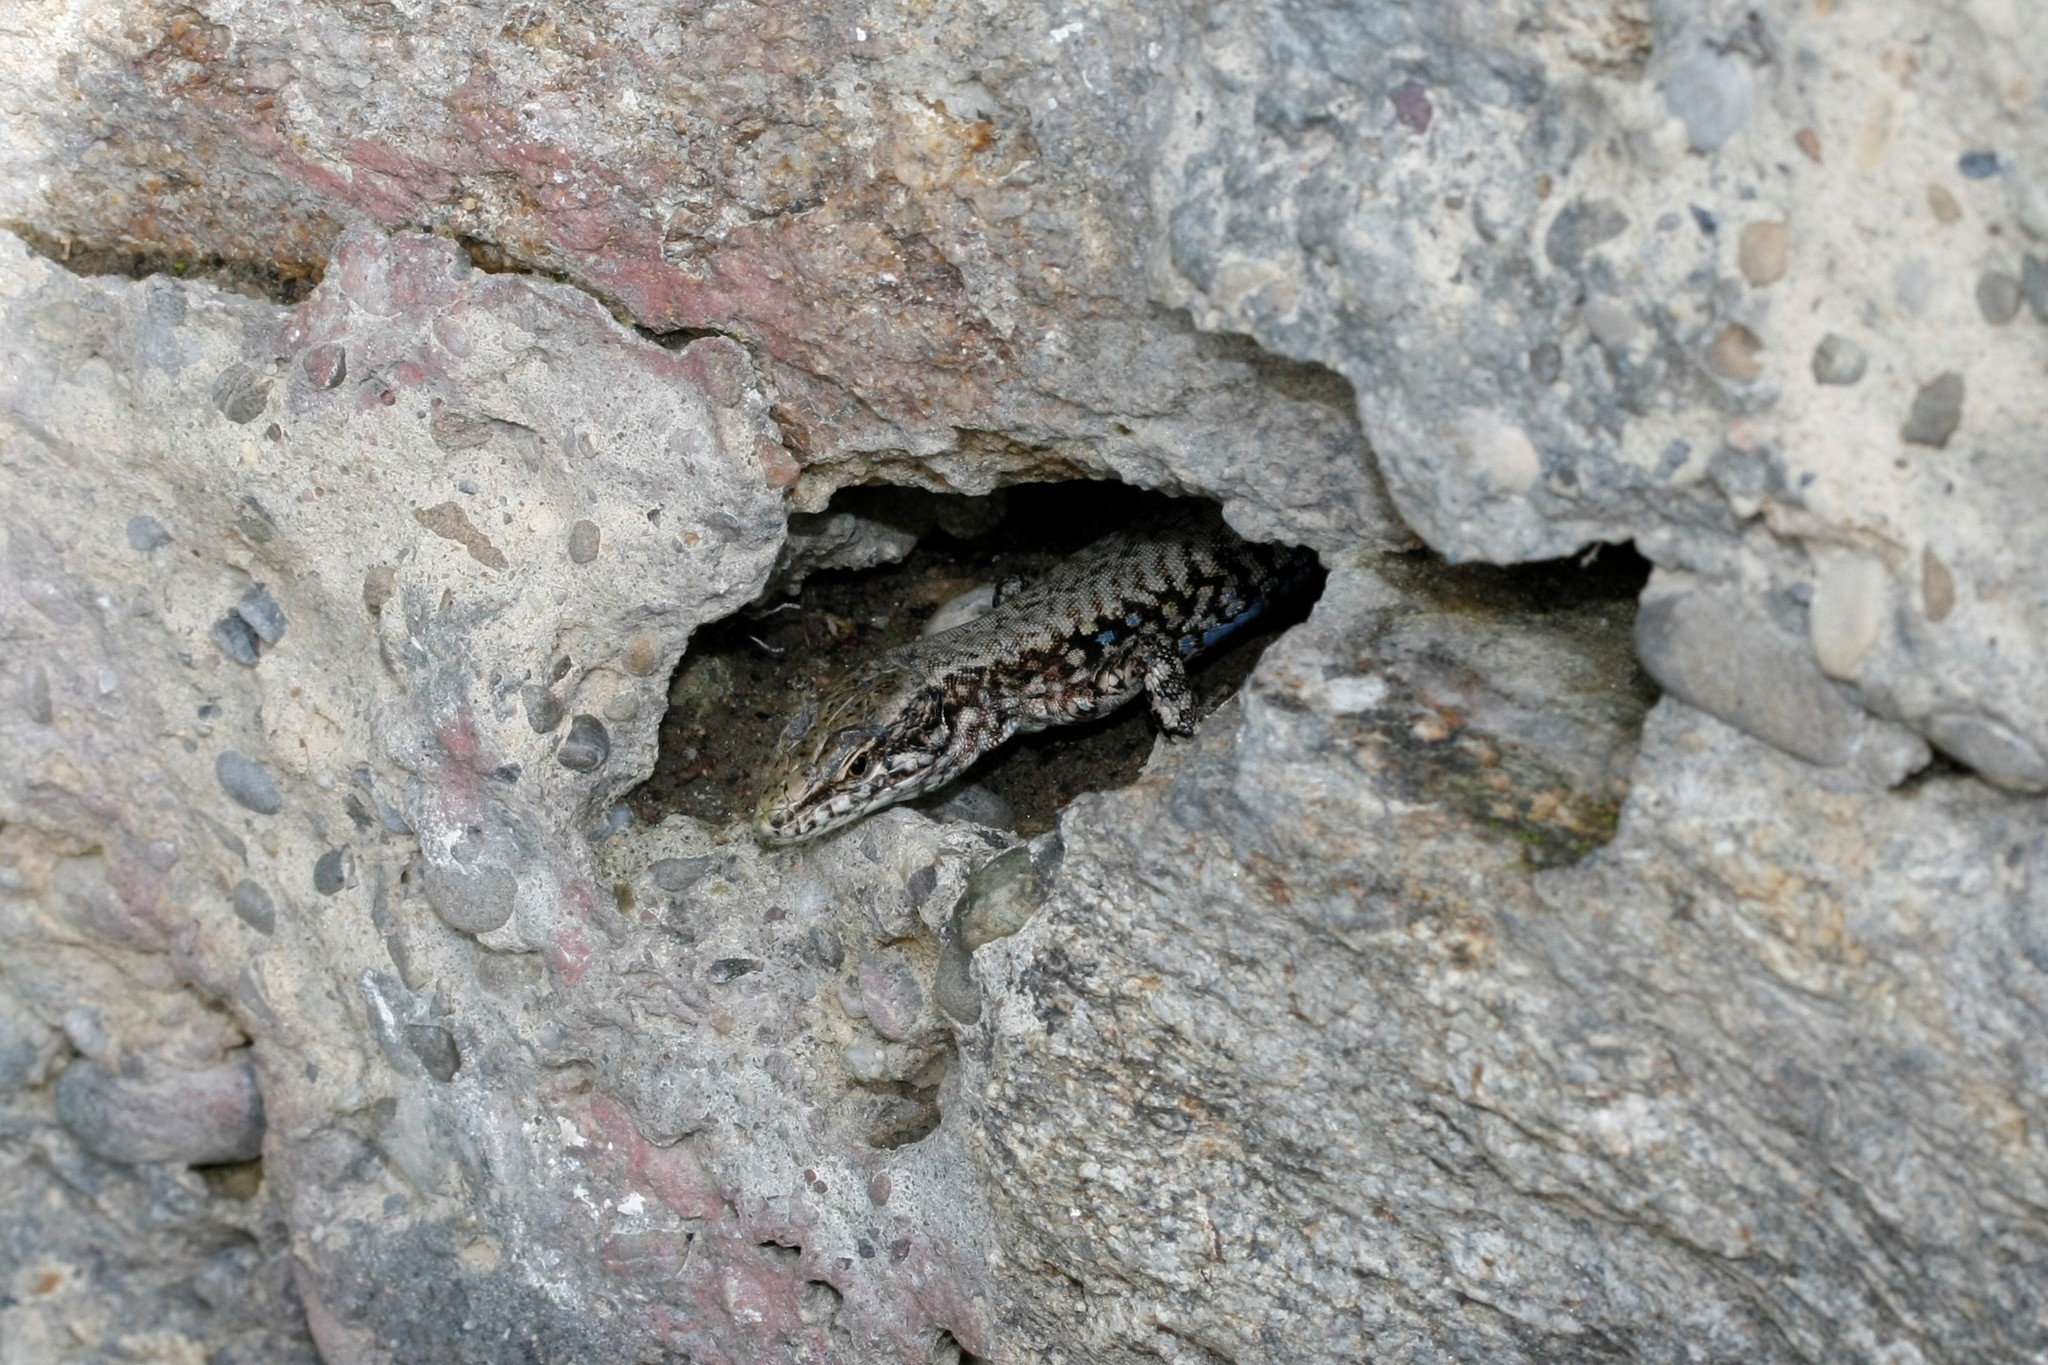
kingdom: Animalia
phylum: Chordata
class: Squamata
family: Lacertidae
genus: Podarcis
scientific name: Podarcis muralis
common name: Common wall lizard
